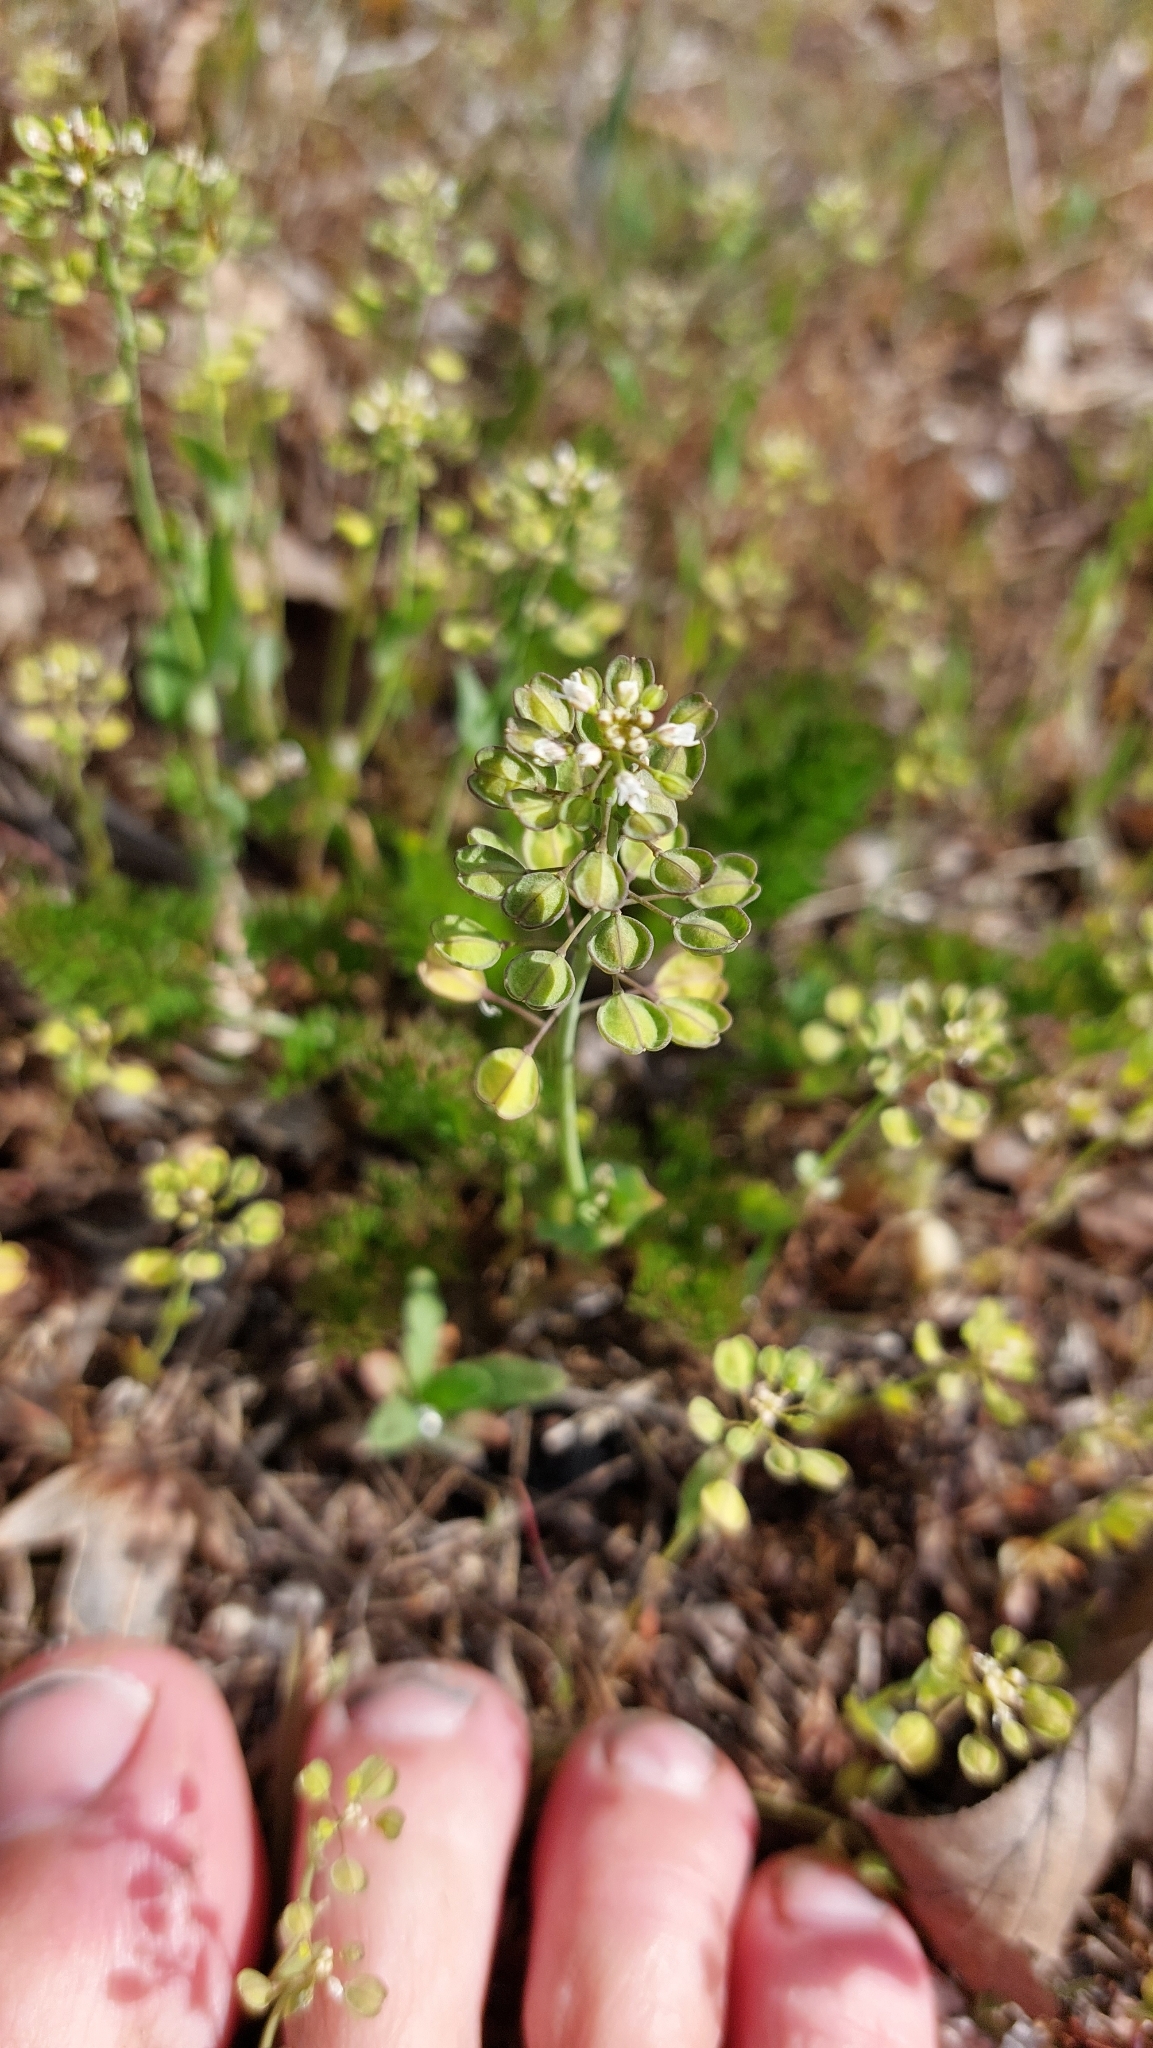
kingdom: Plantae
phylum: Tracheophyta
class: Magnoliopsida
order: Brassicales
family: Brassicaceae
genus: Noccaea
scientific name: Noccaea perfoliata
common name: Perfoliate pennycress
